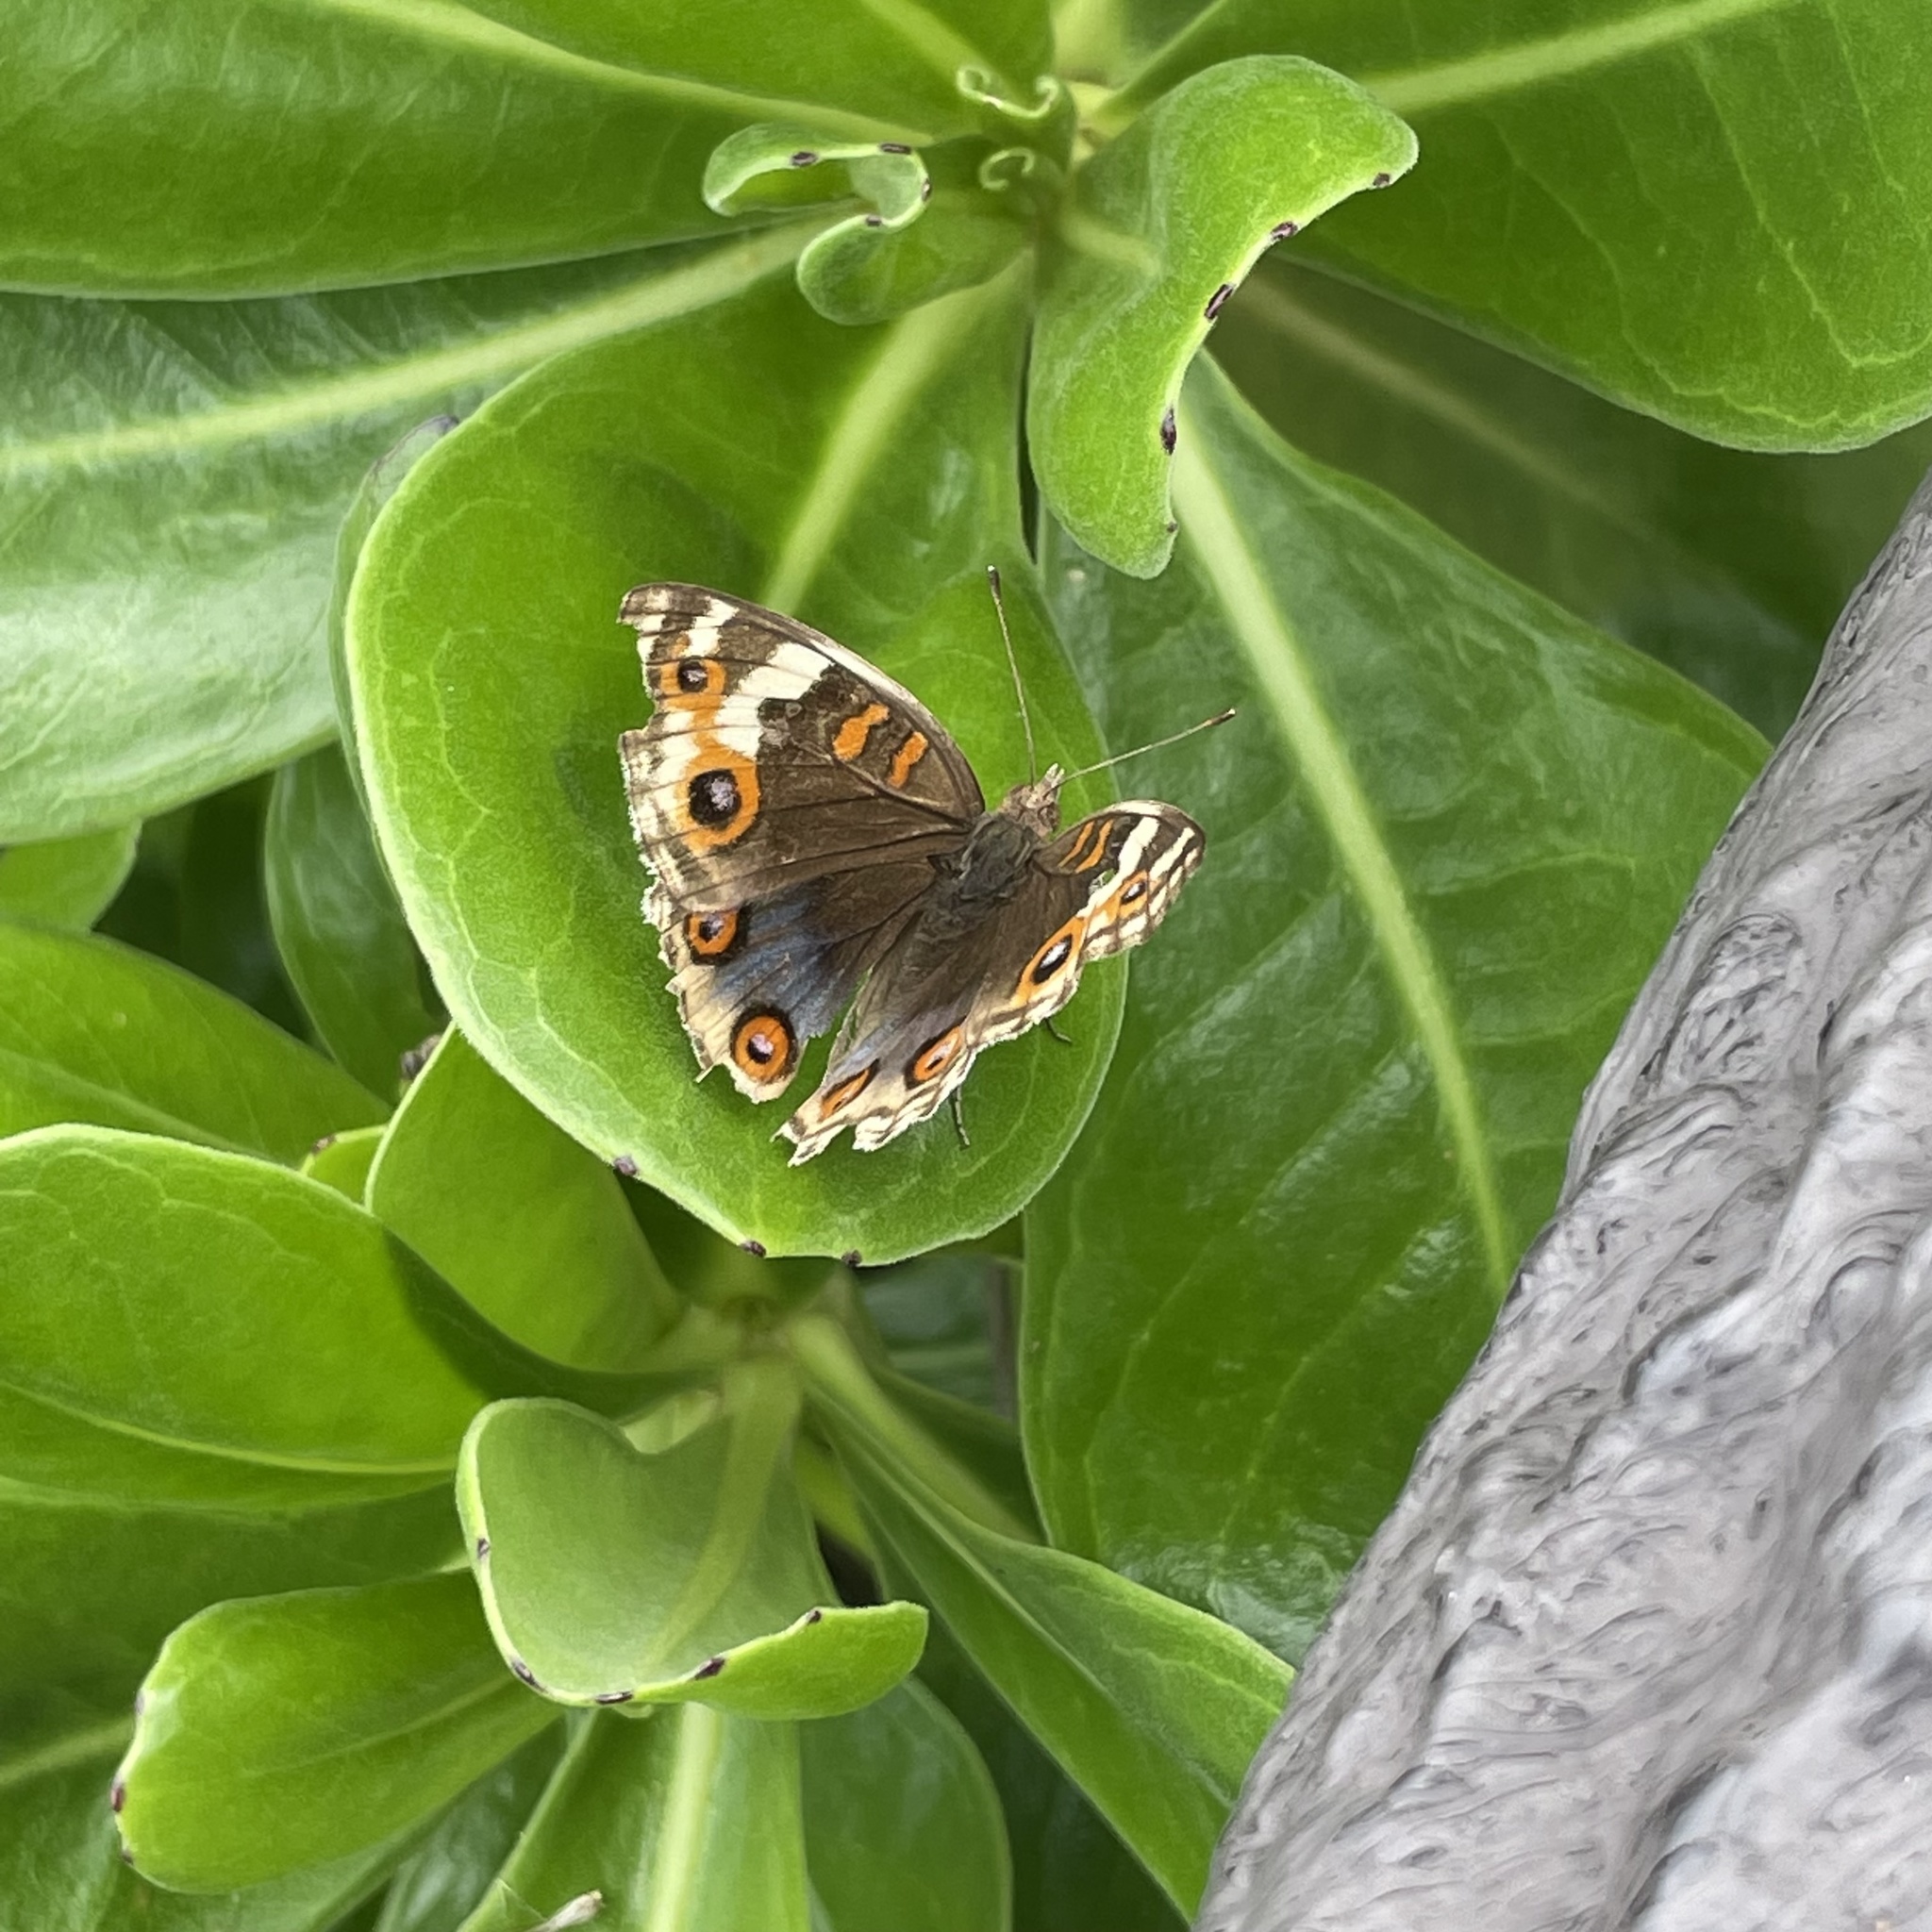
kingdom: Animalia
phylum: Arthropoda
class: Insecta
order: Lepidoptera
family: Nymphalidae
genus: Junonia
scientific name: Junonia orithya
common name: Blue pansy
